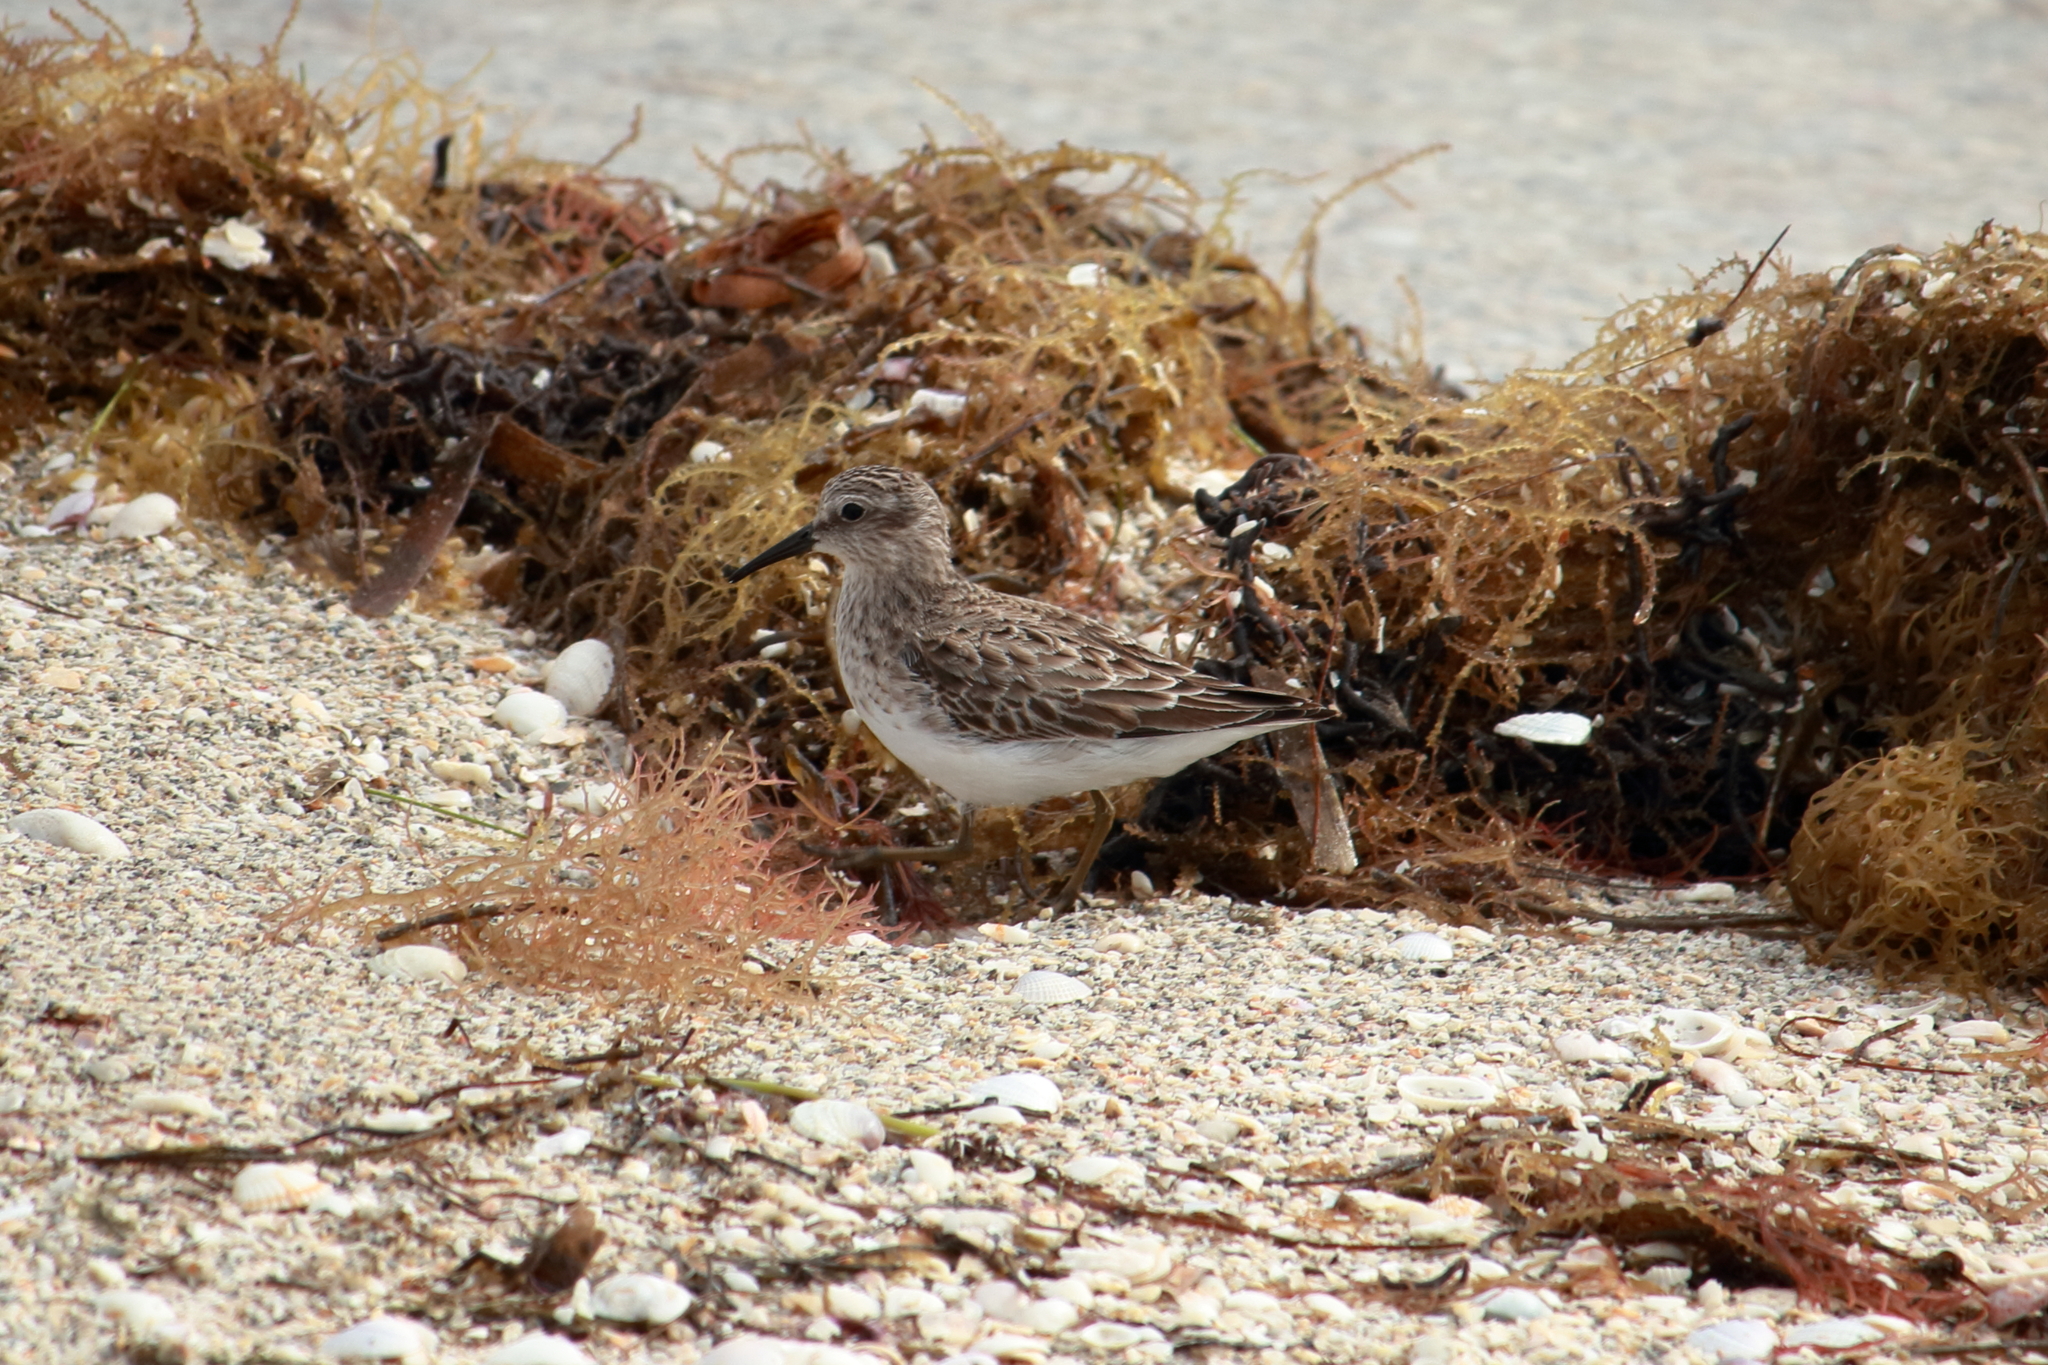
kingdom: Animalia
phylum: Chordata
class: Aves
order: Charadriiformes
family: Scolopacidae
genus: Calidris
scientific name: Calidris minutilla
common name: Least sandpiper
